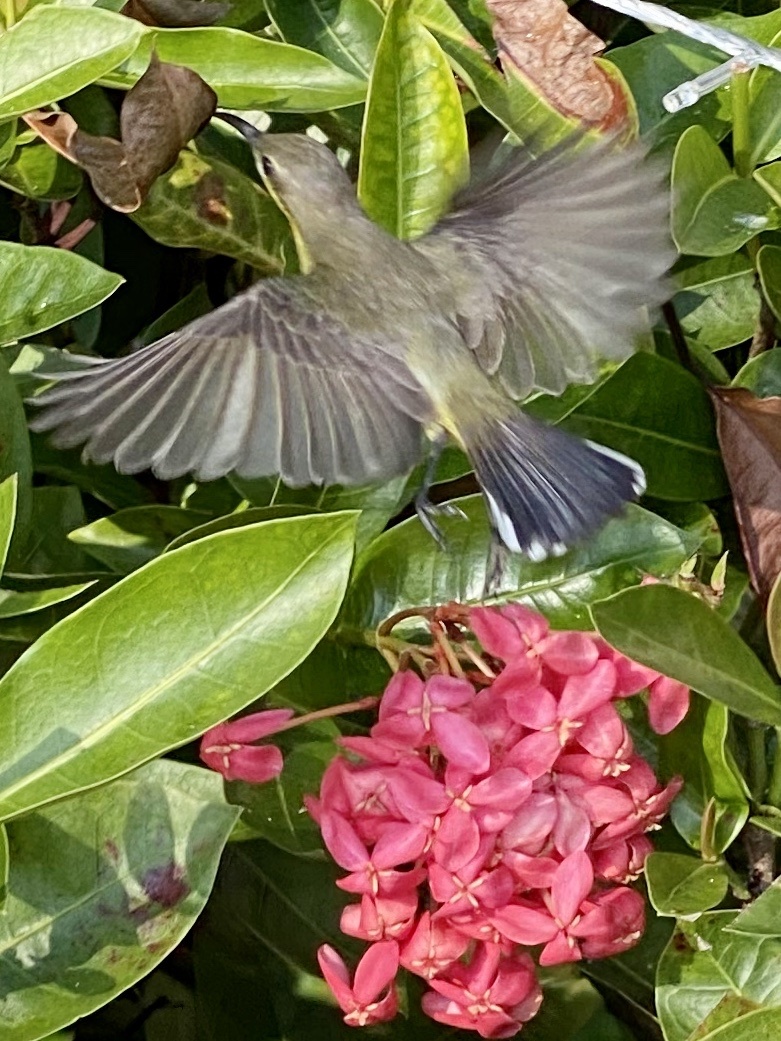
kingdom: Animalia
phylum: Chordata
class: Aves
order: Passeriformes
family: Nectariniidae
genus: Cinnyris
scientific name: Cinnyris
